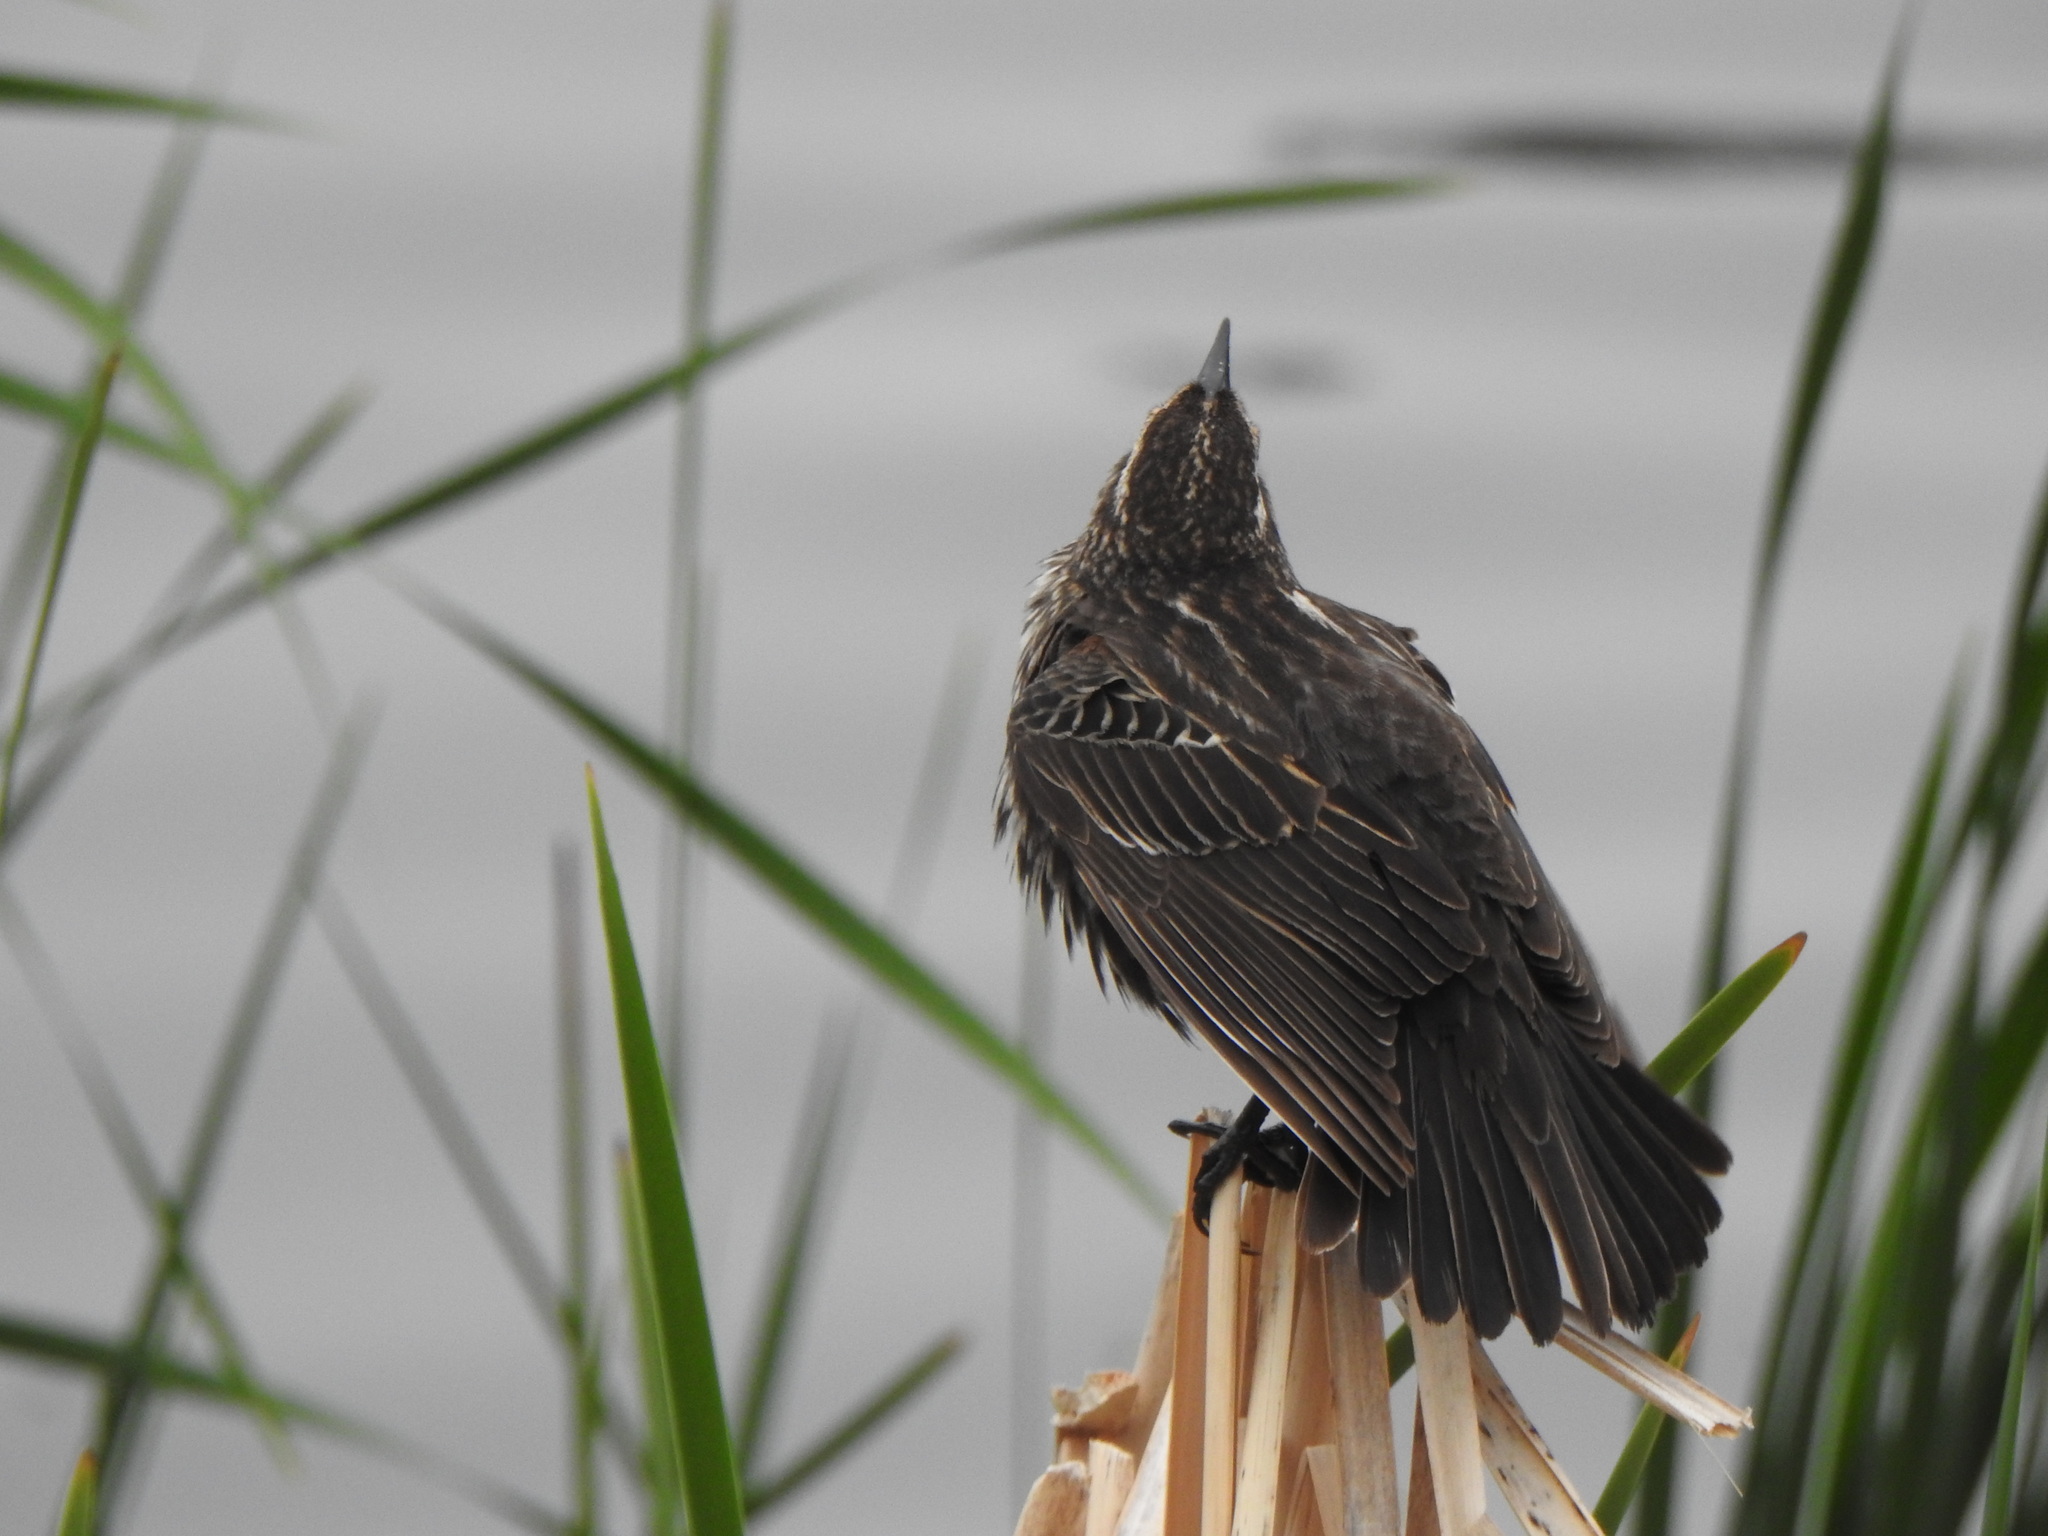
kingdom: Animalia
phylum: Chordata
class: Aves
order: Passeriformes
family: Icteridae
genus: Agelaius
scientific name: Agelaius phoeniceus
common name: Red-winged blackbird
